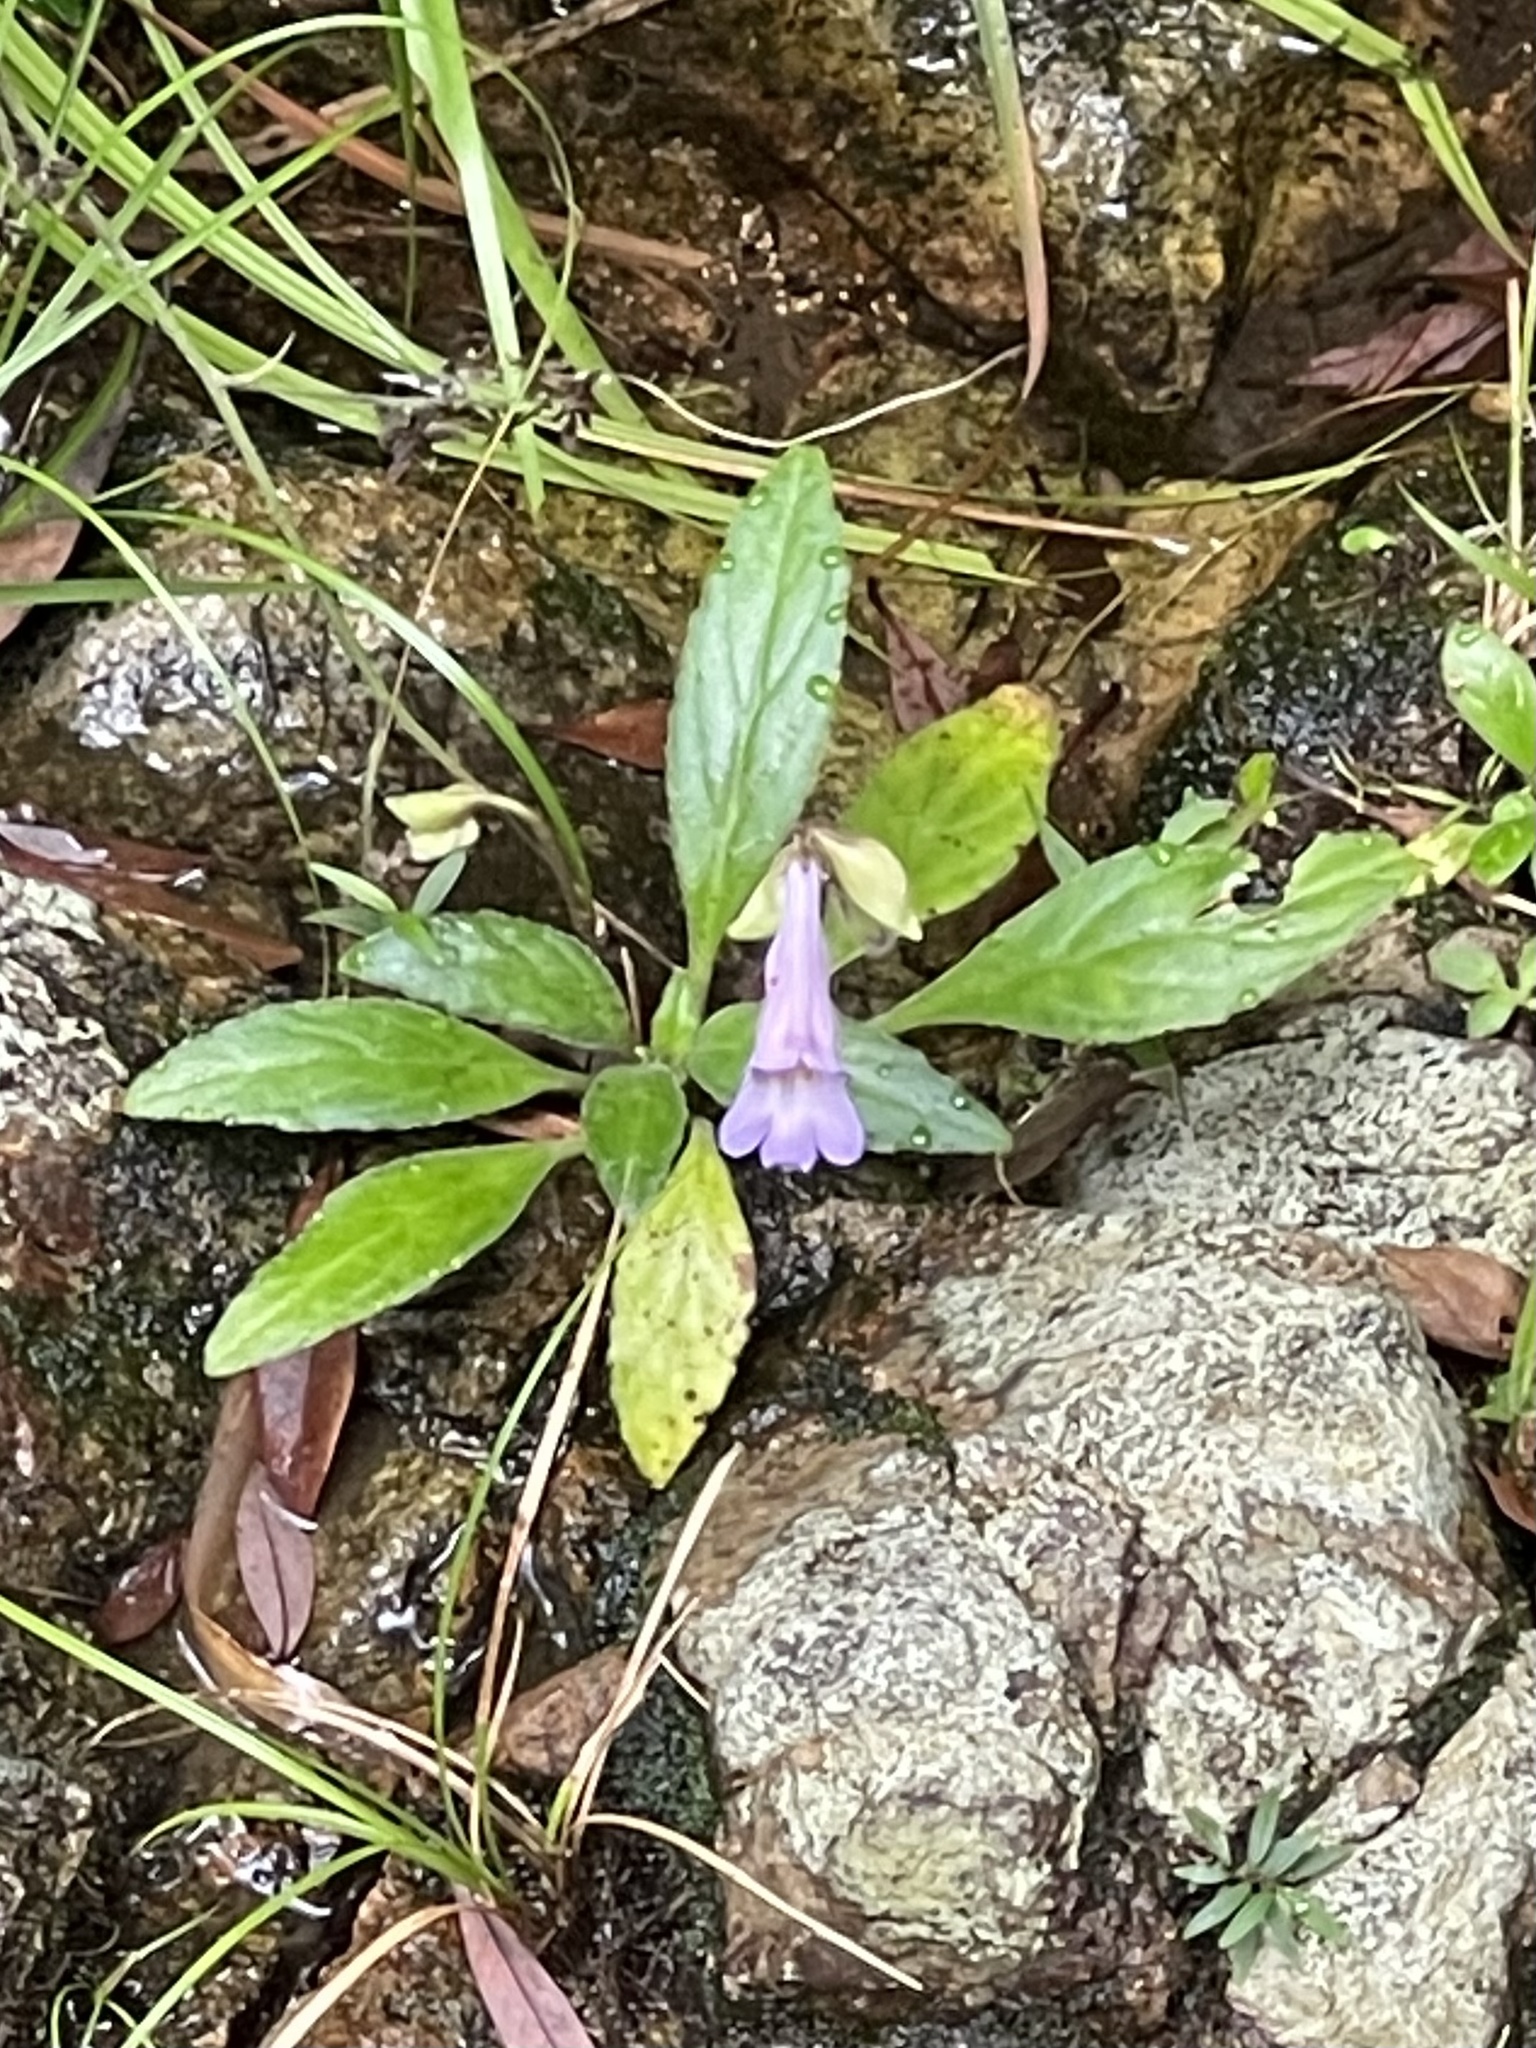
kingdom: Plantae
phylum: Tracheophyta
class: Magnoliopsida
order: Lamiales
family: Gesneriaceae
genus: Primulina
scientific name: Primulina dryas
